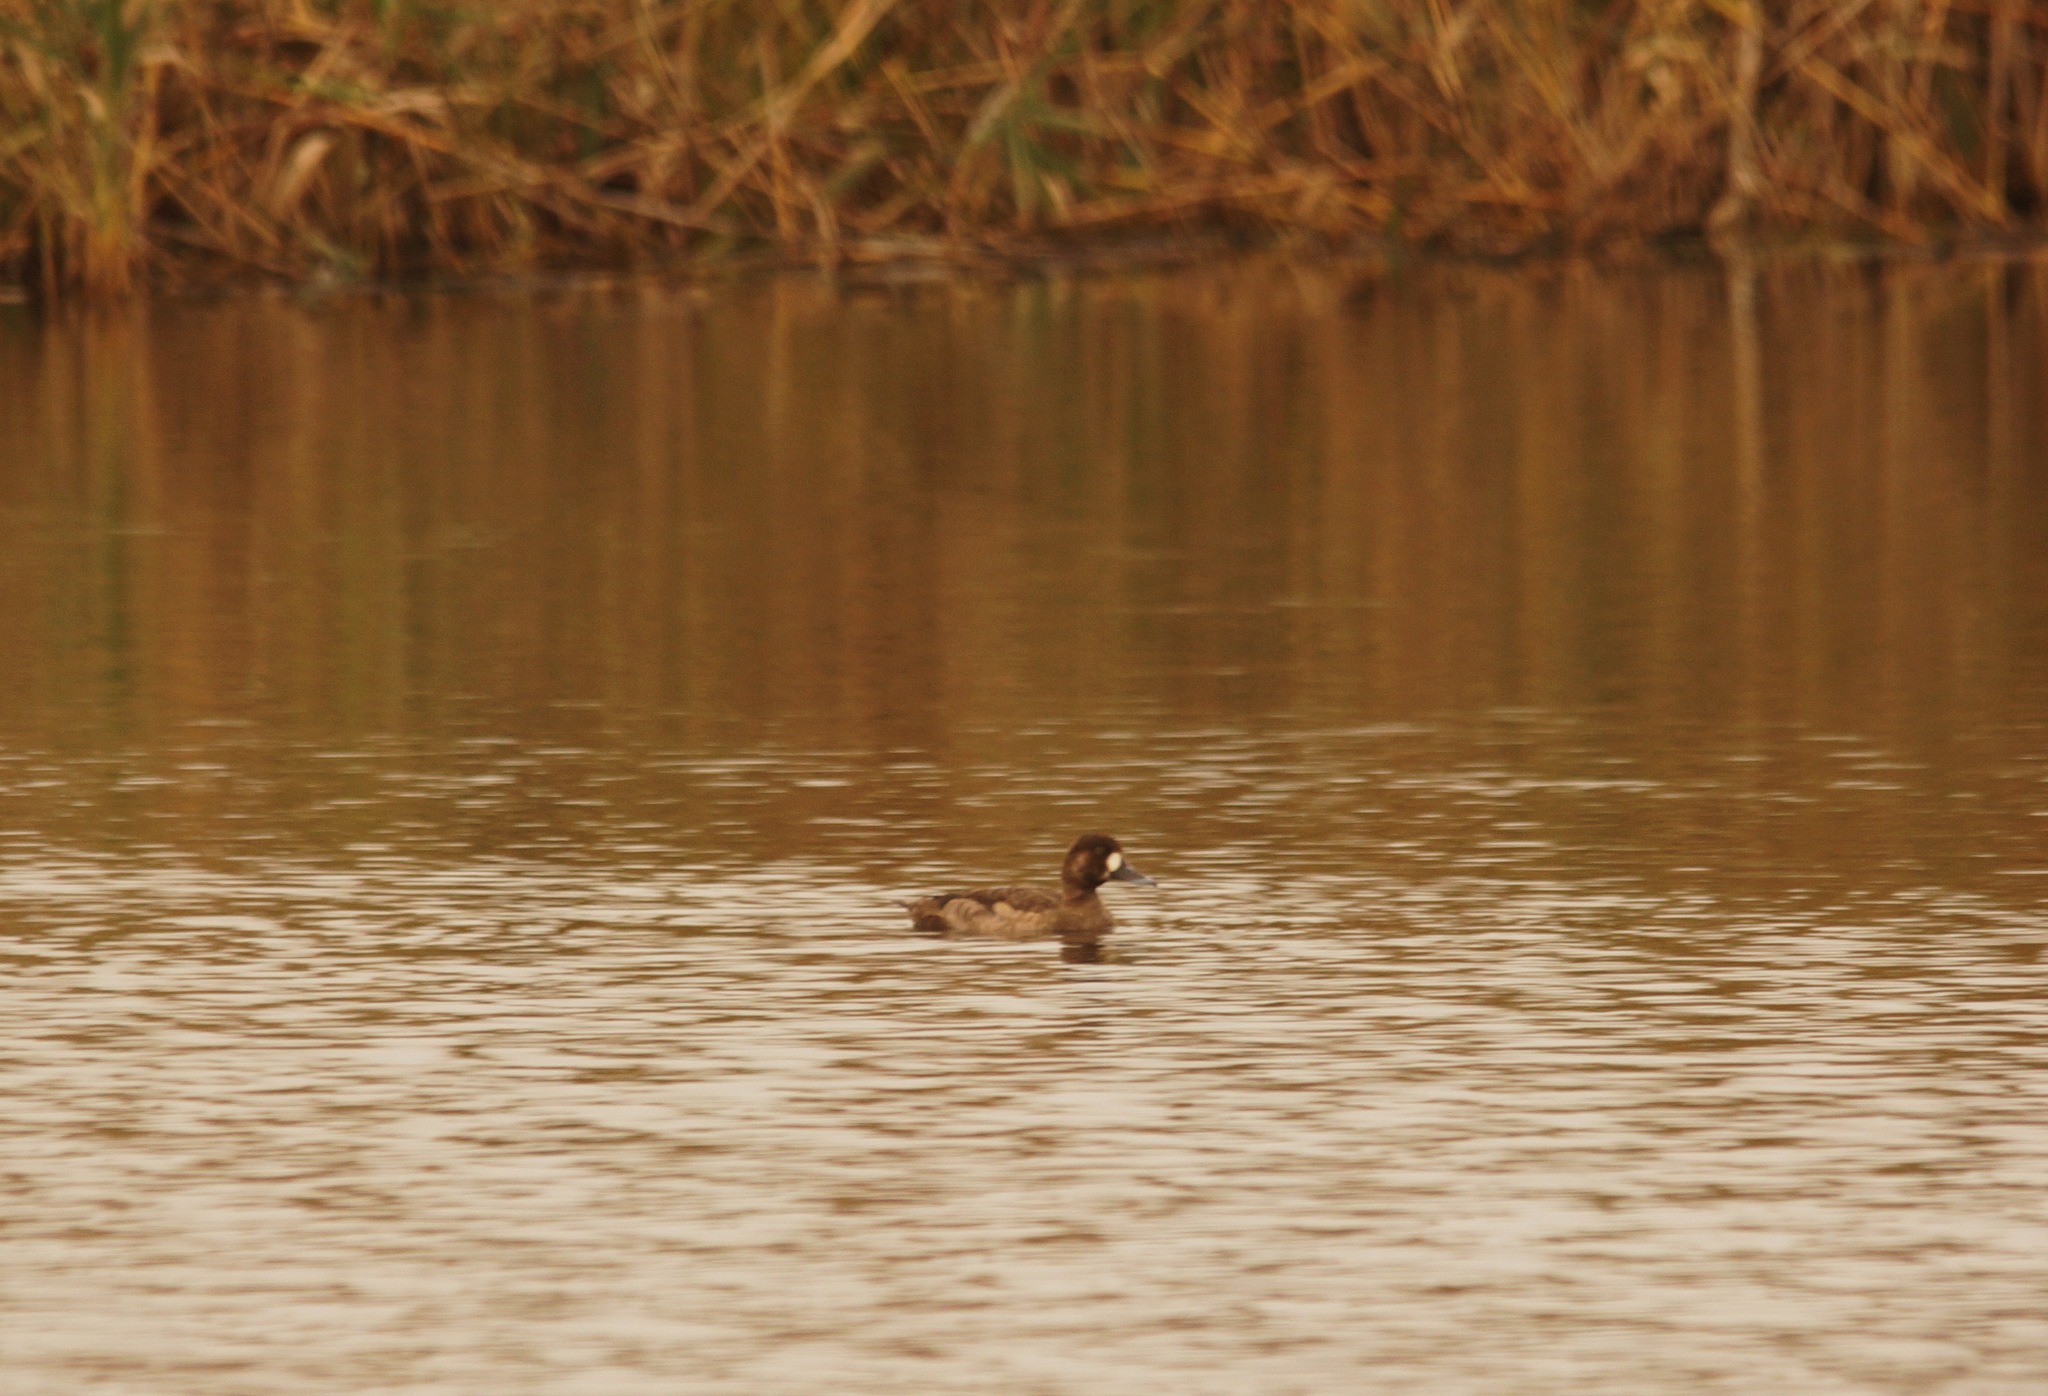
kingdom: Animalia
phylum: Chordata
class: Aves
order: Anseriformes
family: Anatidae
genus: Aythya
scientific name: Aythya marila
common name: Greater scaup
